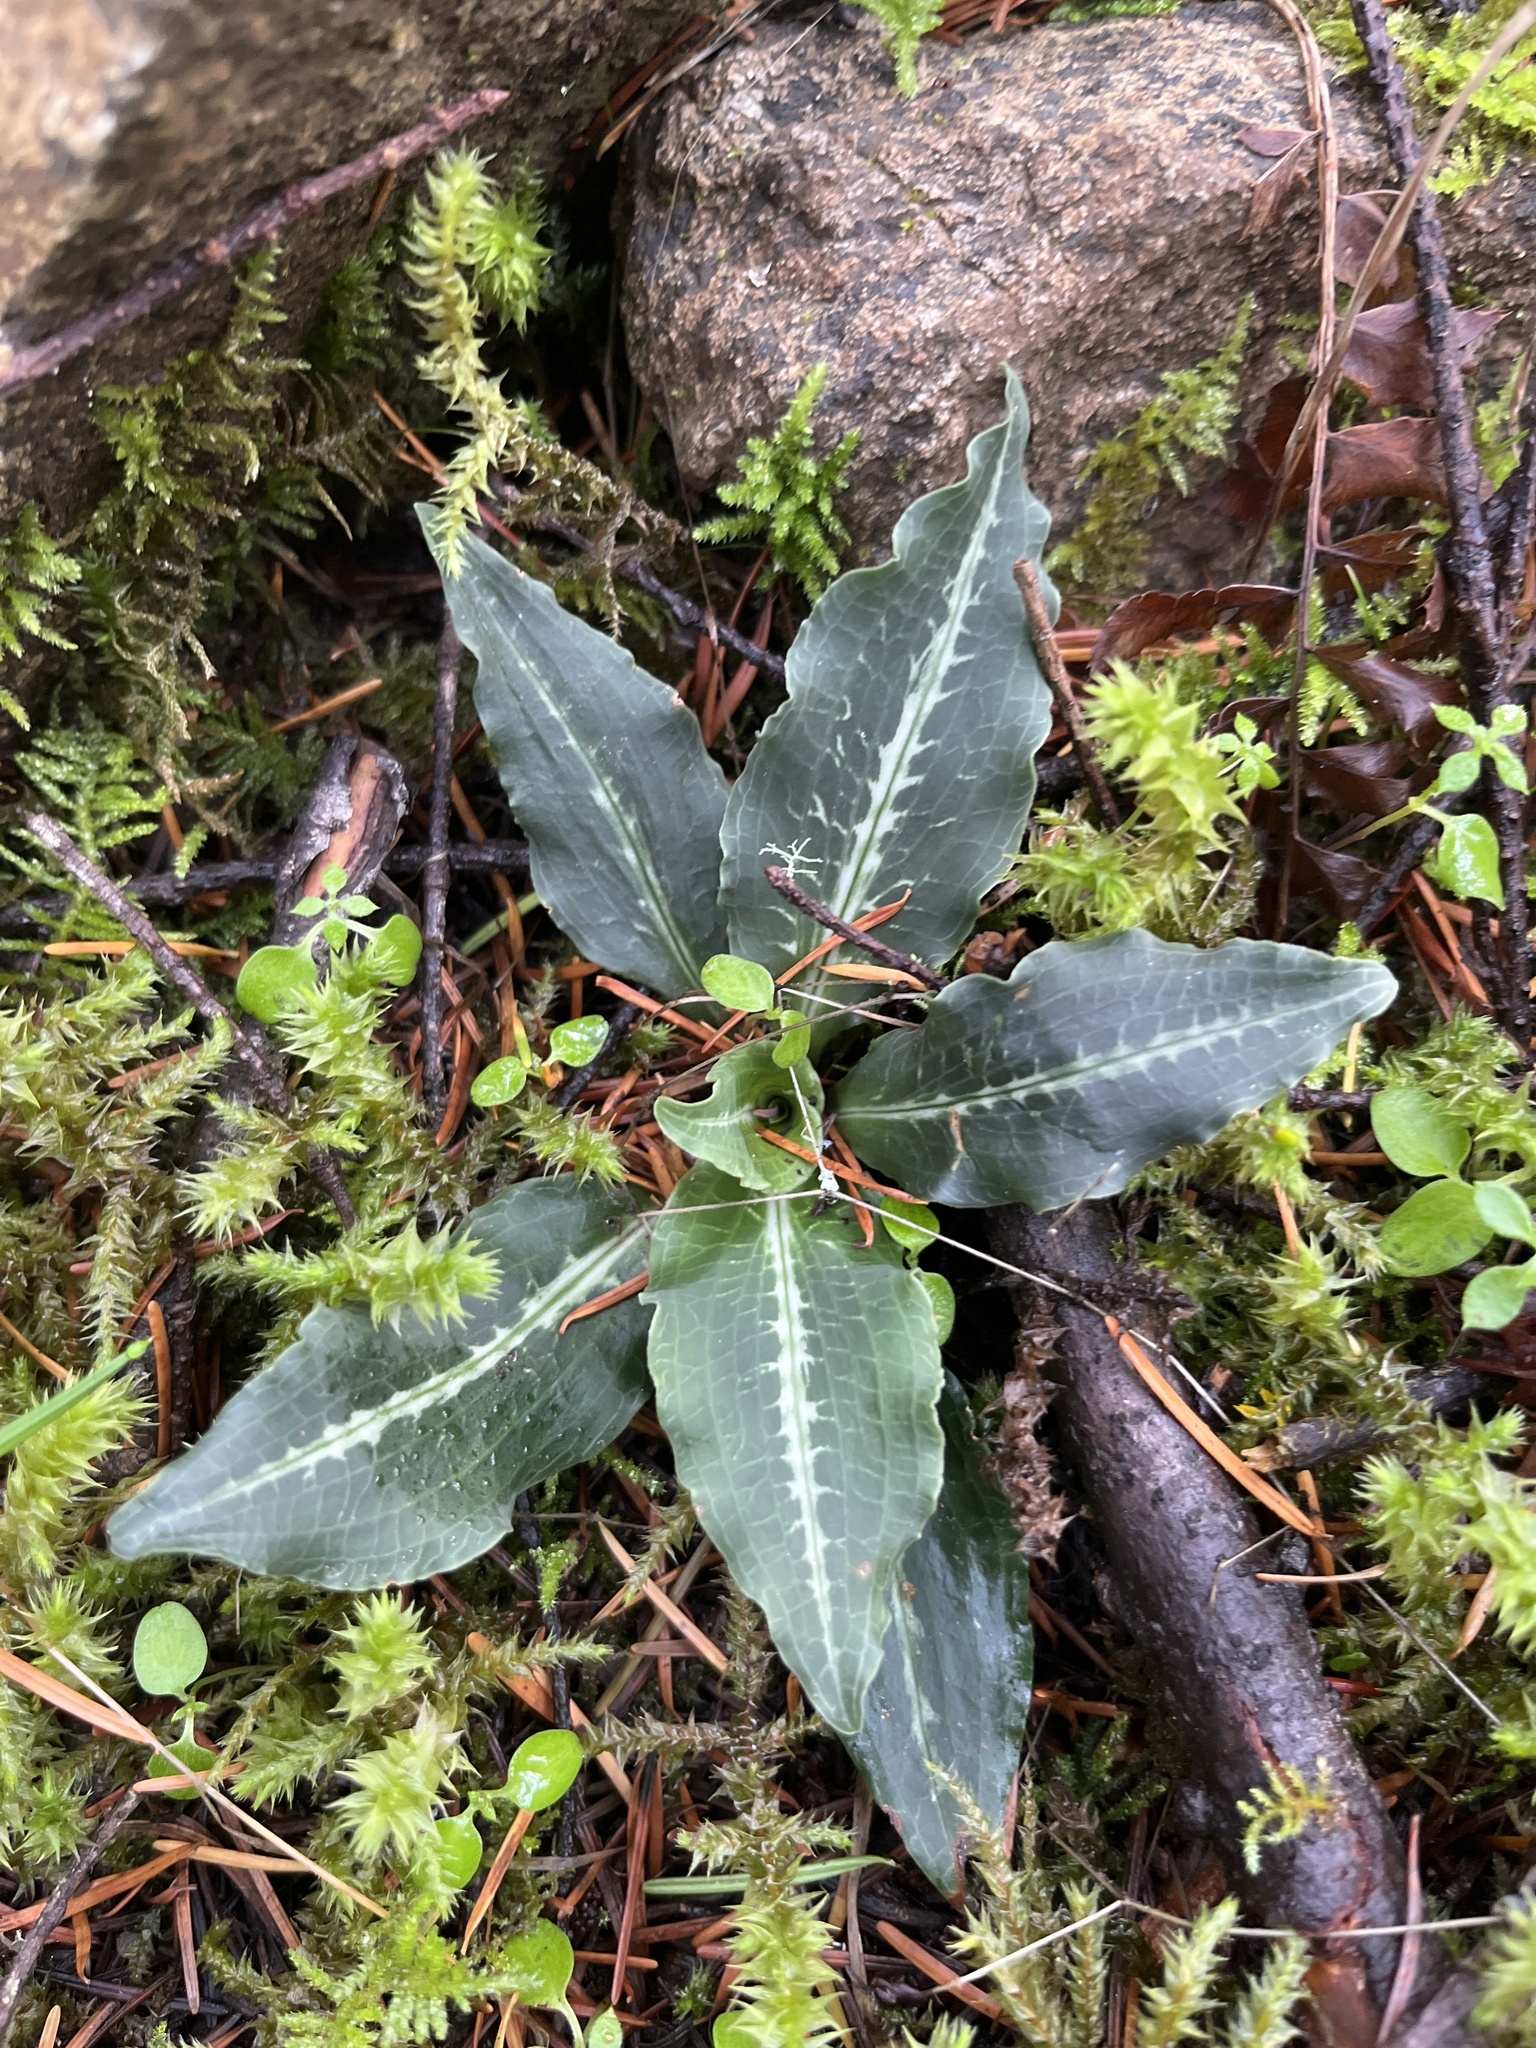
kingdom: Plantae
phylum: Tracheophyta
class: Liliopsida
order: Asparagales
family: Orchidaceae
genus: Goodyera
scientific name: Goodyera oblongifolia
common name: Giant rattlesnake-plantain
